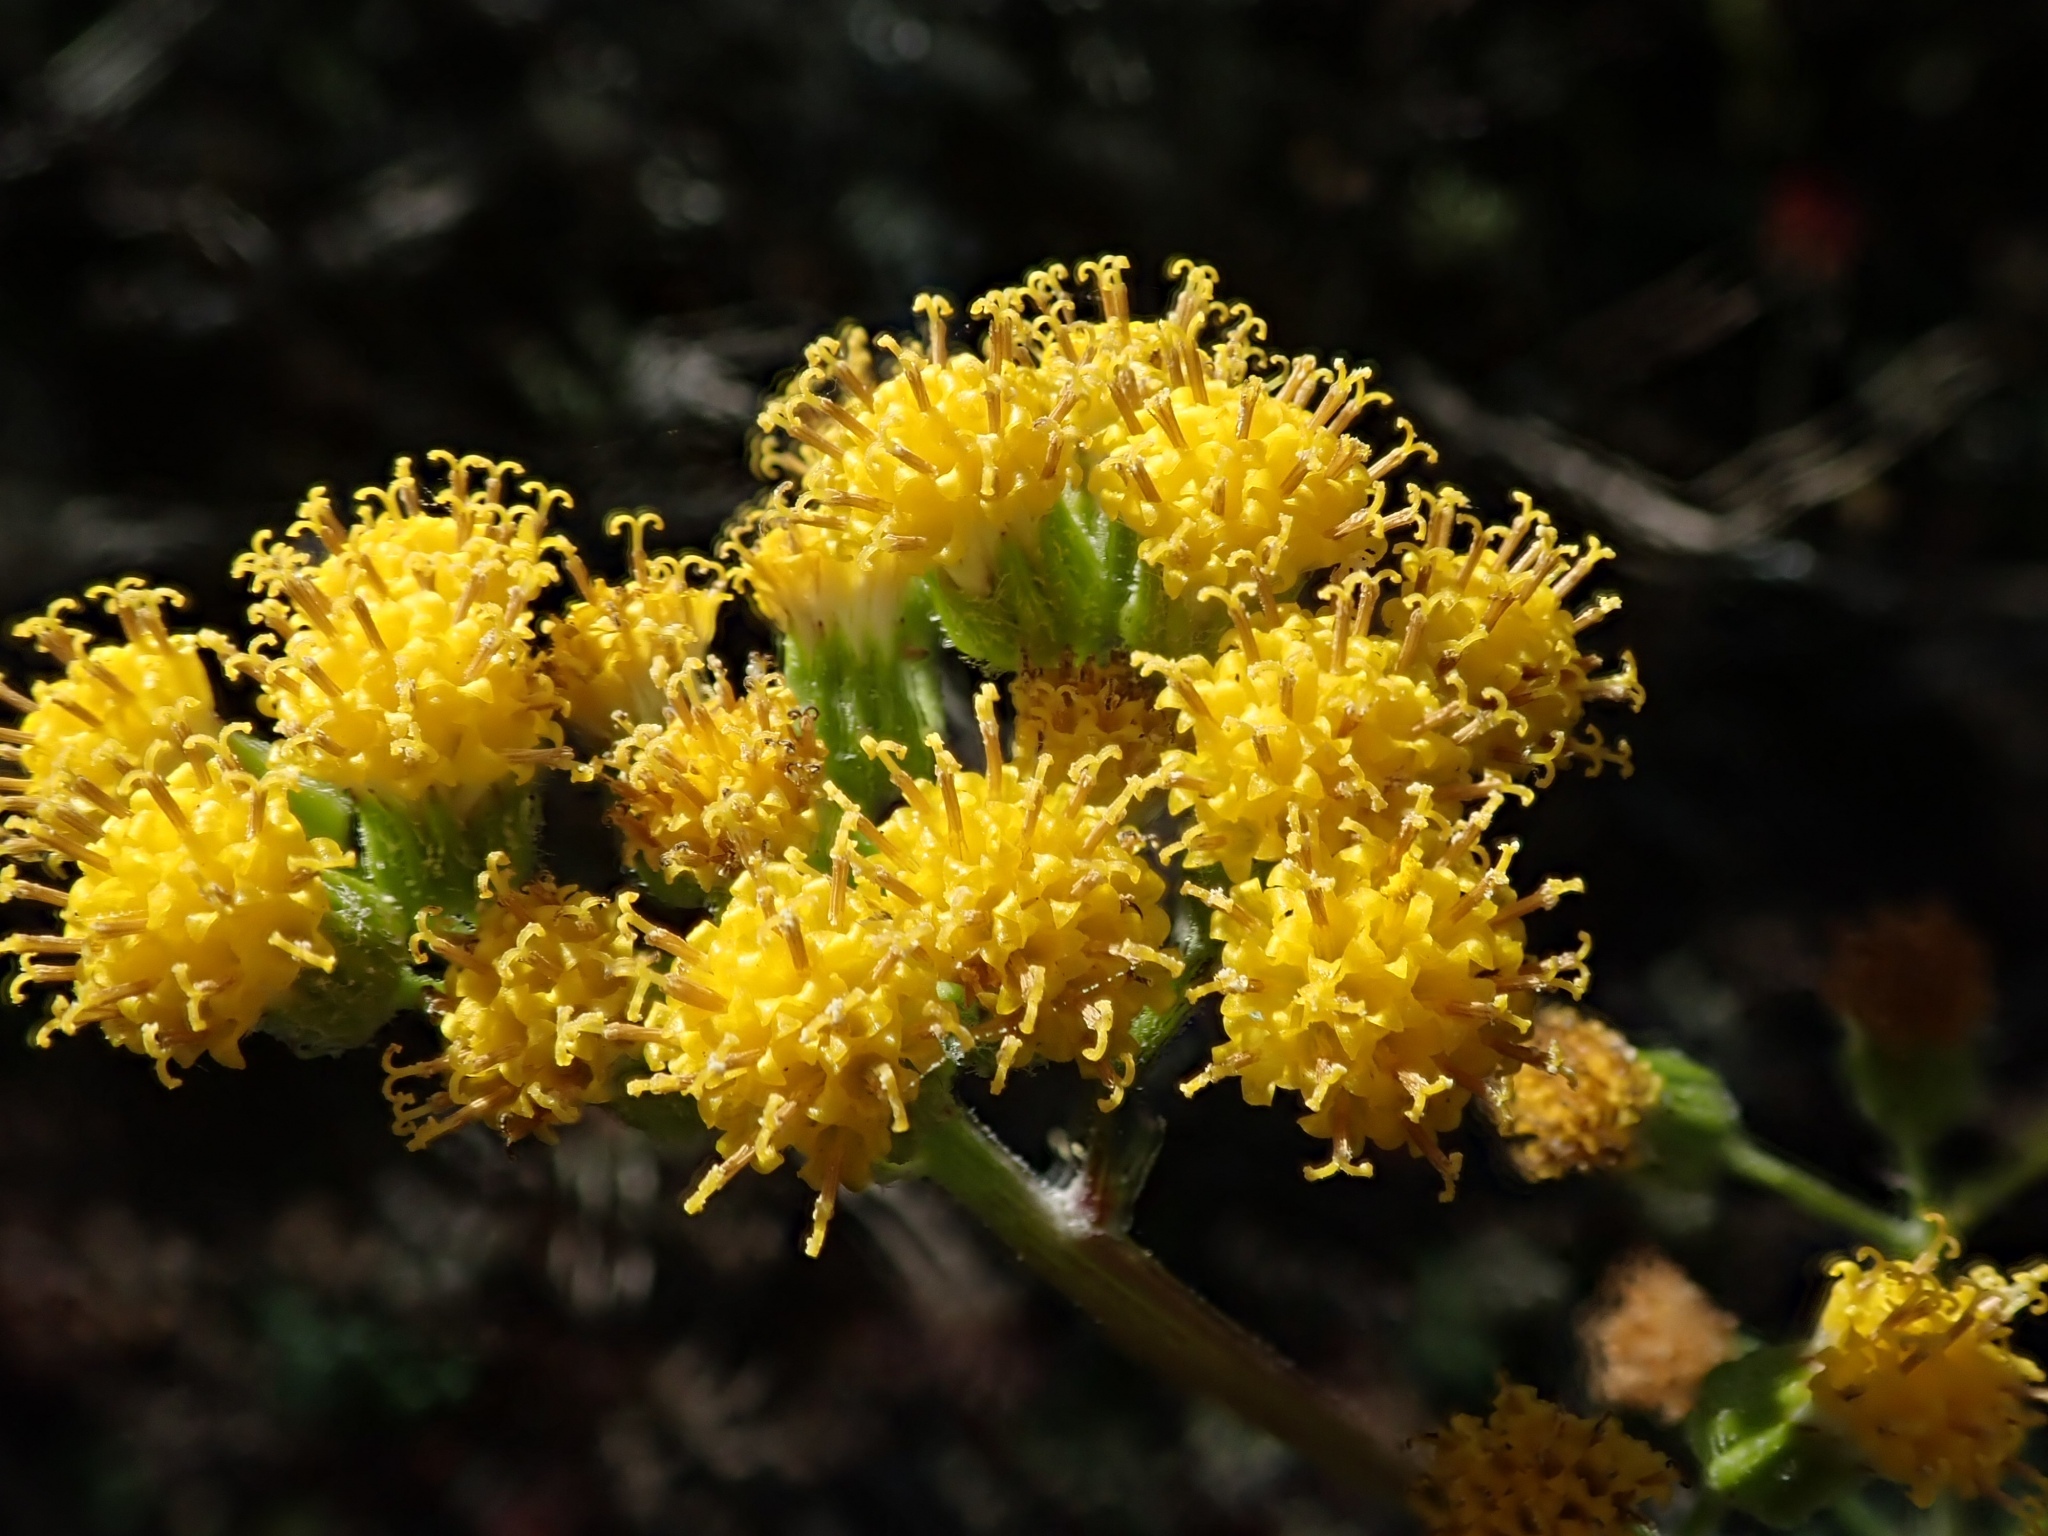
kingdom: Plantae
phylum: Tracheophyta
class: Magnoliopsida
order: Asterales
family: Asteraceae
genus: Senecio
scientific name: Senecio aronicoides
